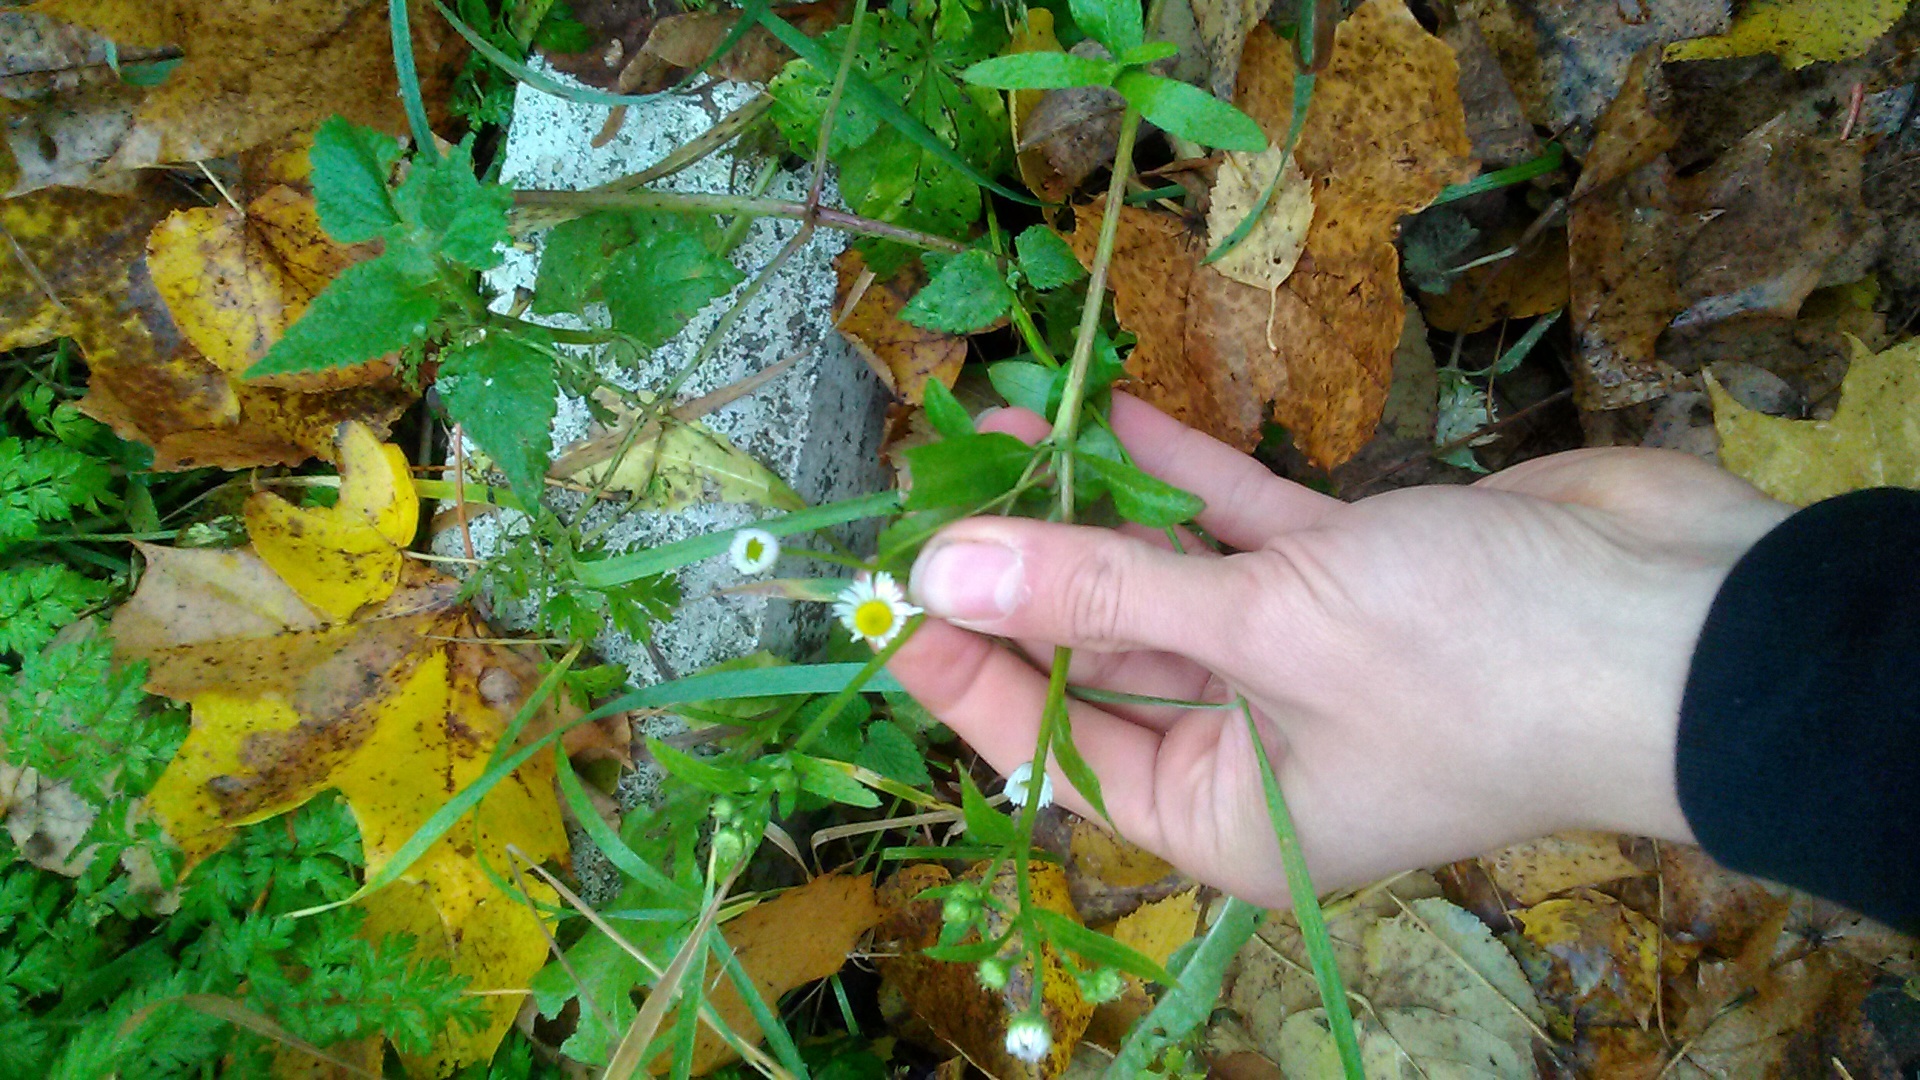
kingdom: Plantae
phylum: Tracheophyta
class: Magnoliopsida
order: Asterales
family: Asteraceae
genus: Erigeron
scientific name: Erigeron annuus
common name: Tall fleabane
